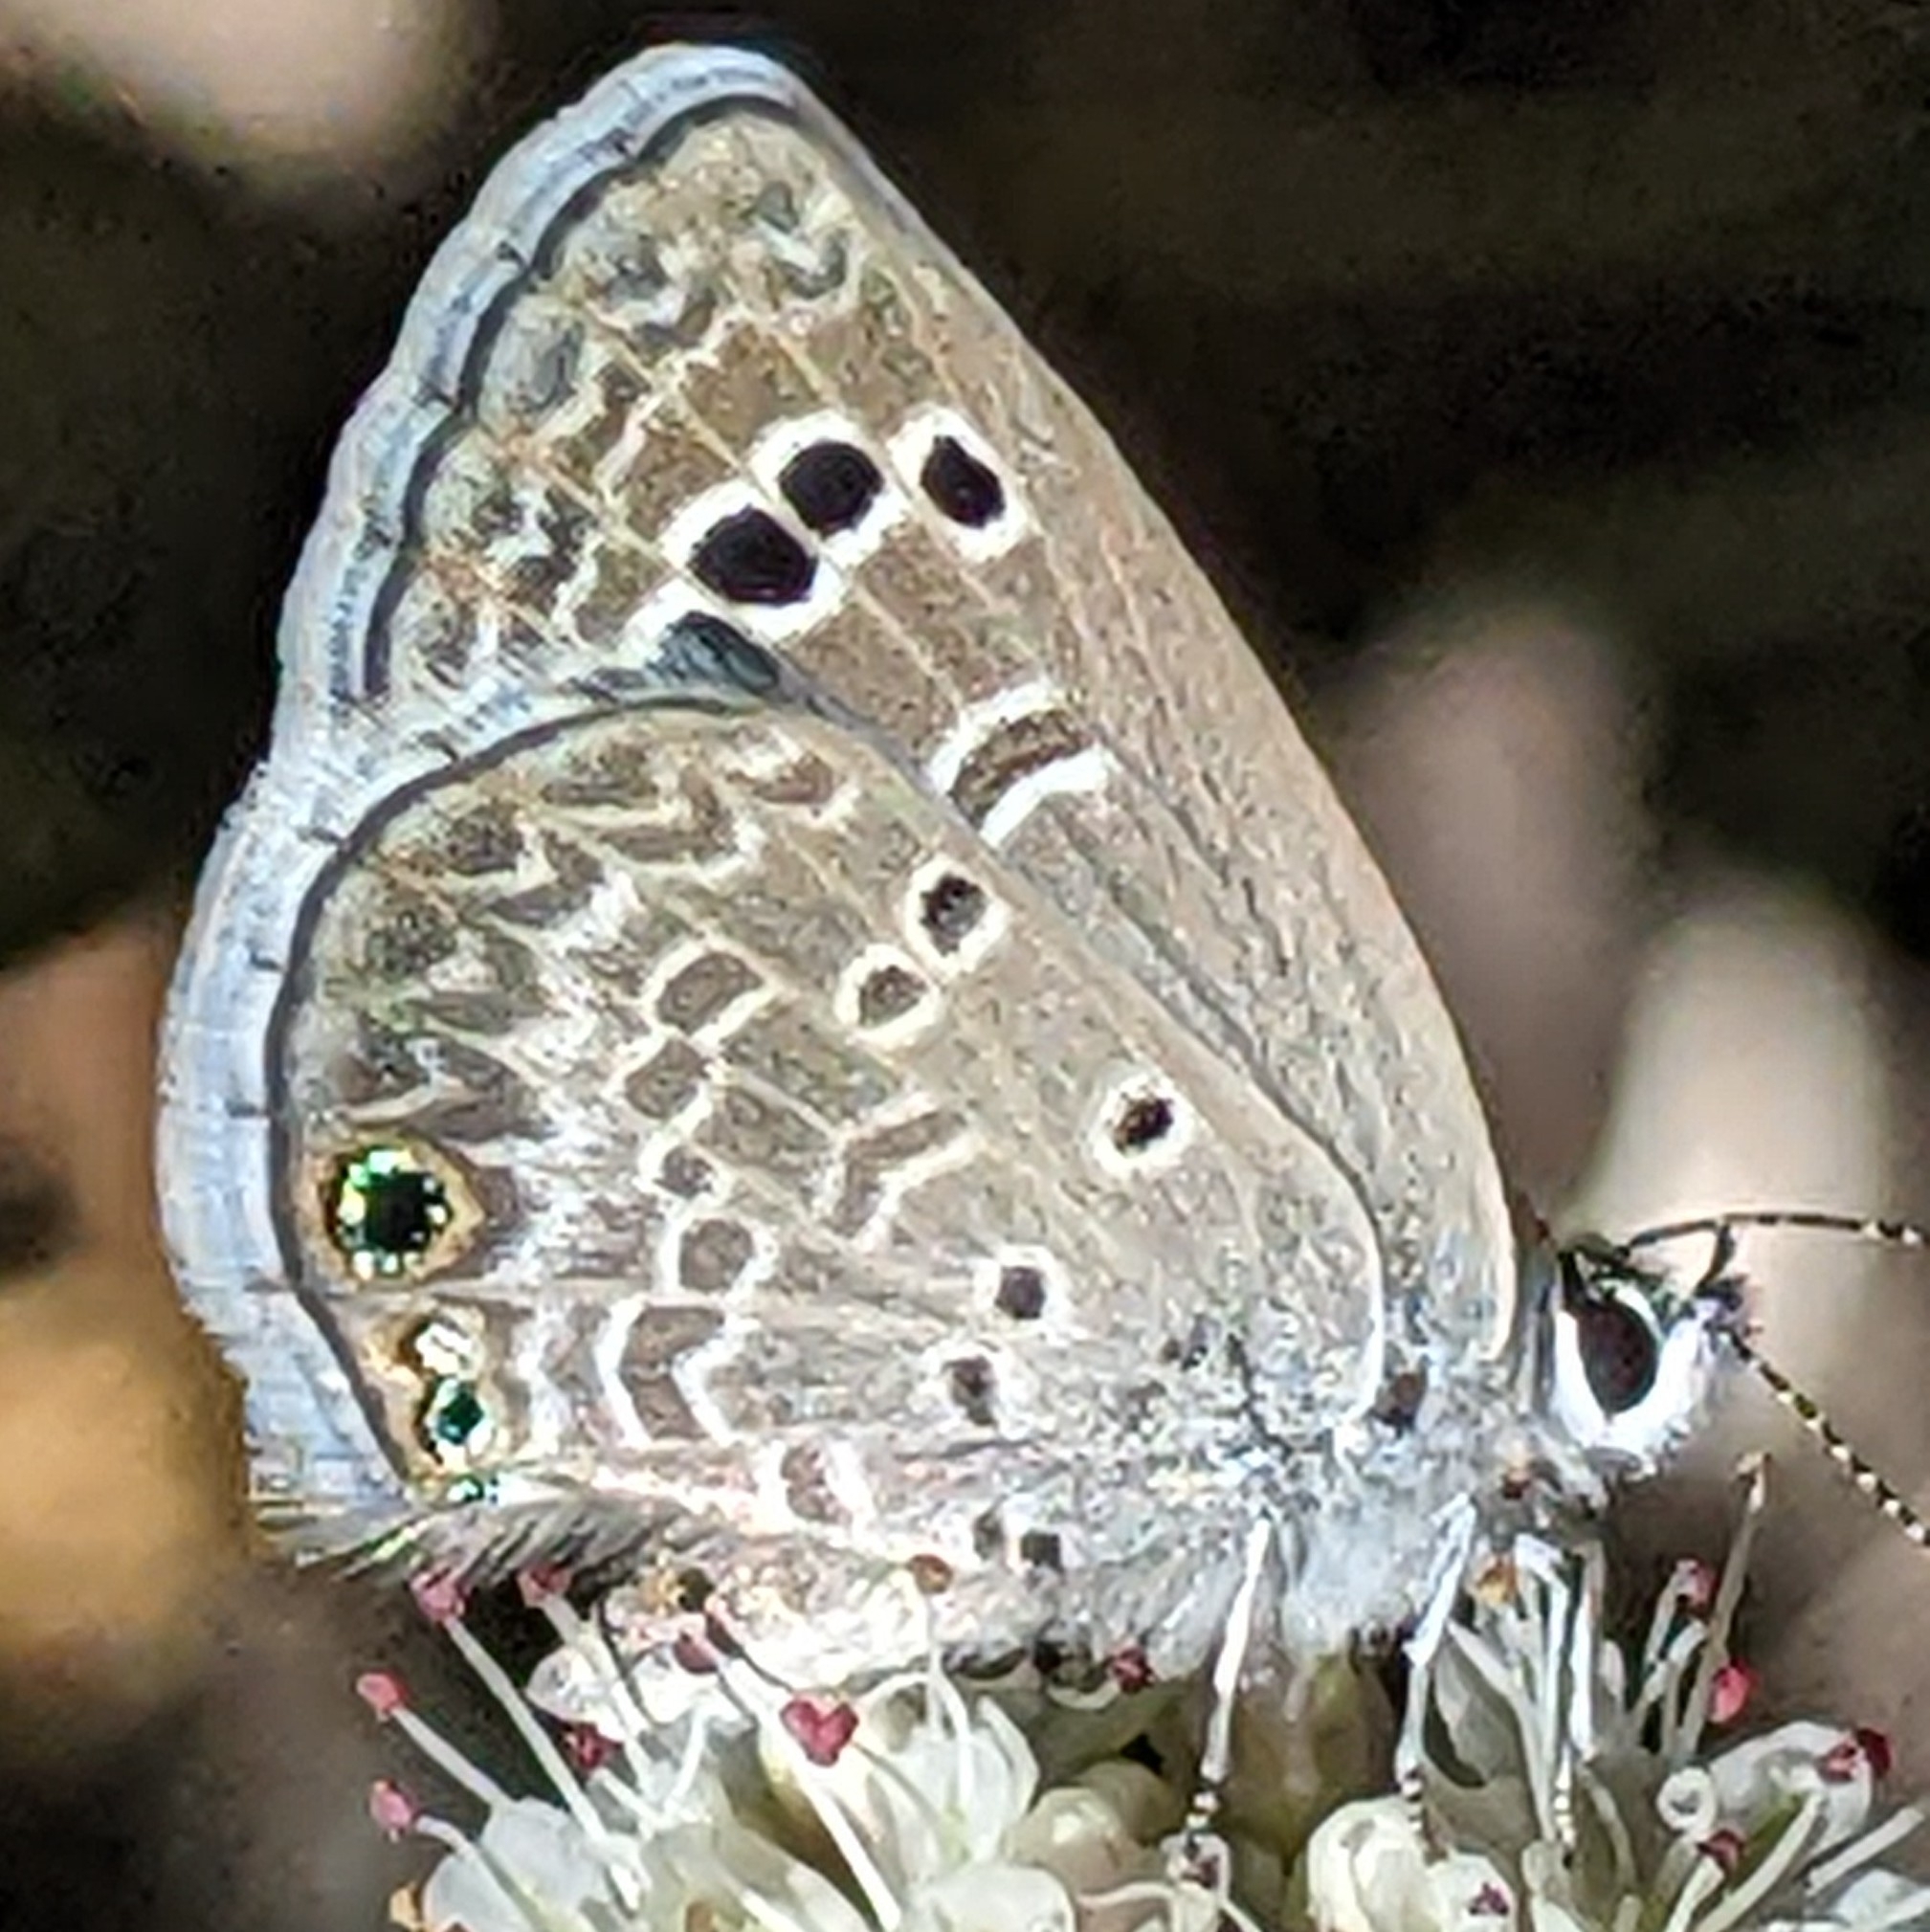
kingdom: Animalia
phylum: Arthropoda
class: Insecta
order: Lepidoptera
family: Lycaenidae
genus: Echinargus
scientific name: Echinargus isola
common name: Reakirt's blue
